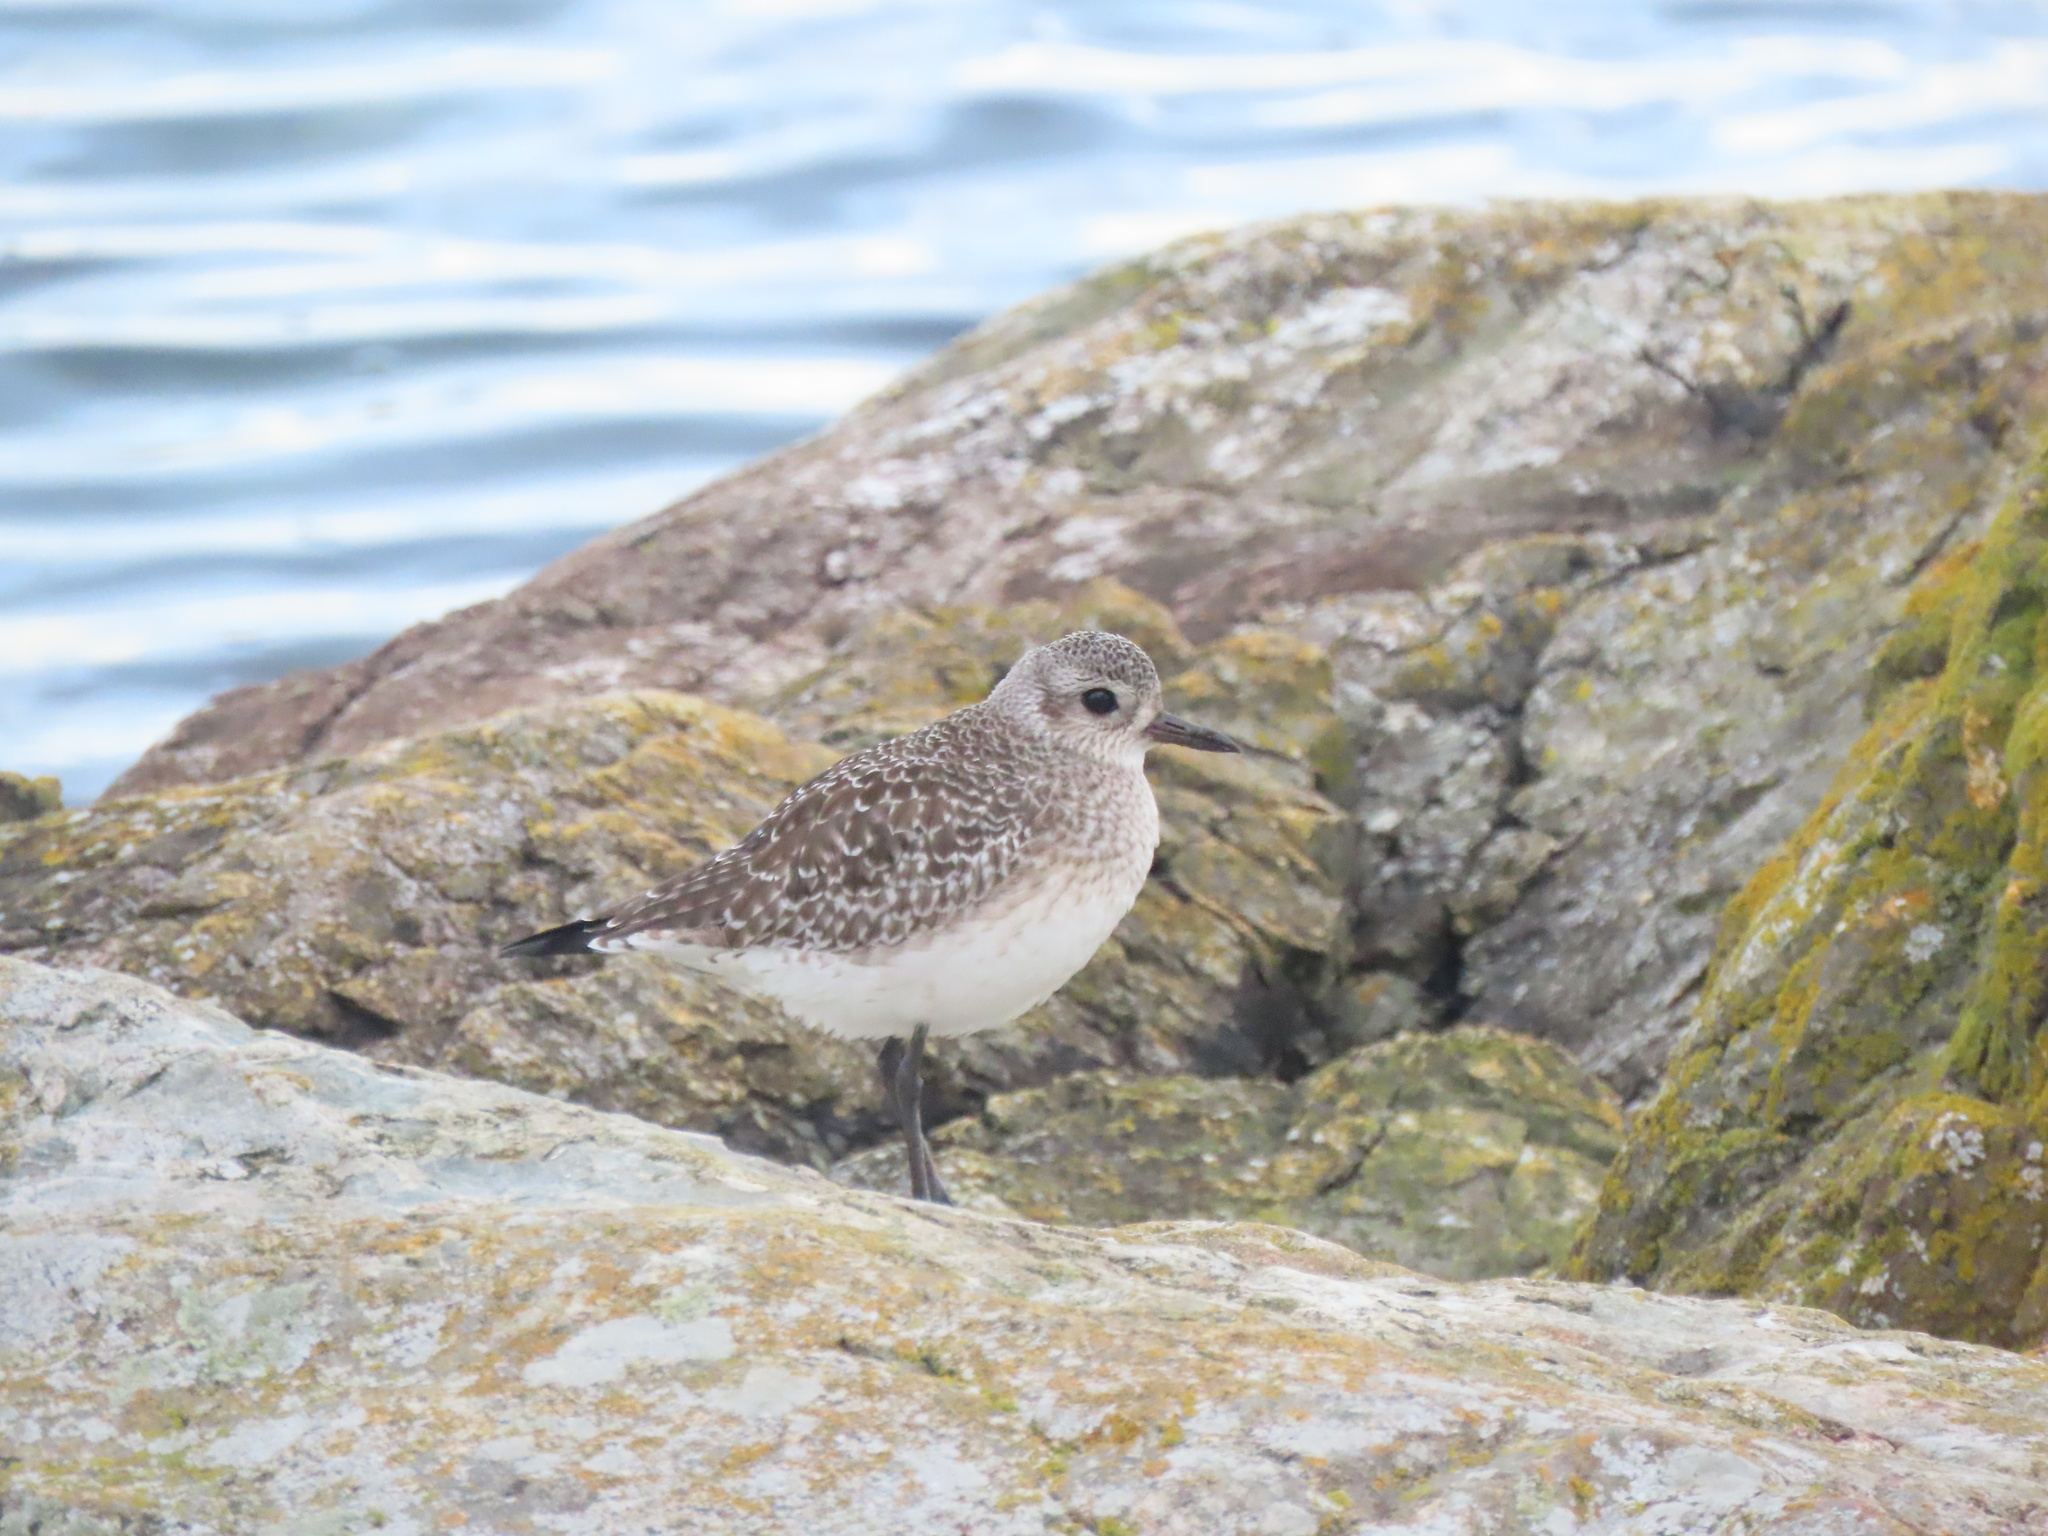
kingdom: Animalia
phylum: Chordata
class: Aves
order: Charadriiformes
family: Charadriidae
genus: Pluvialis
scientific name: Pluvialis squatarola
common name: Grey plover
